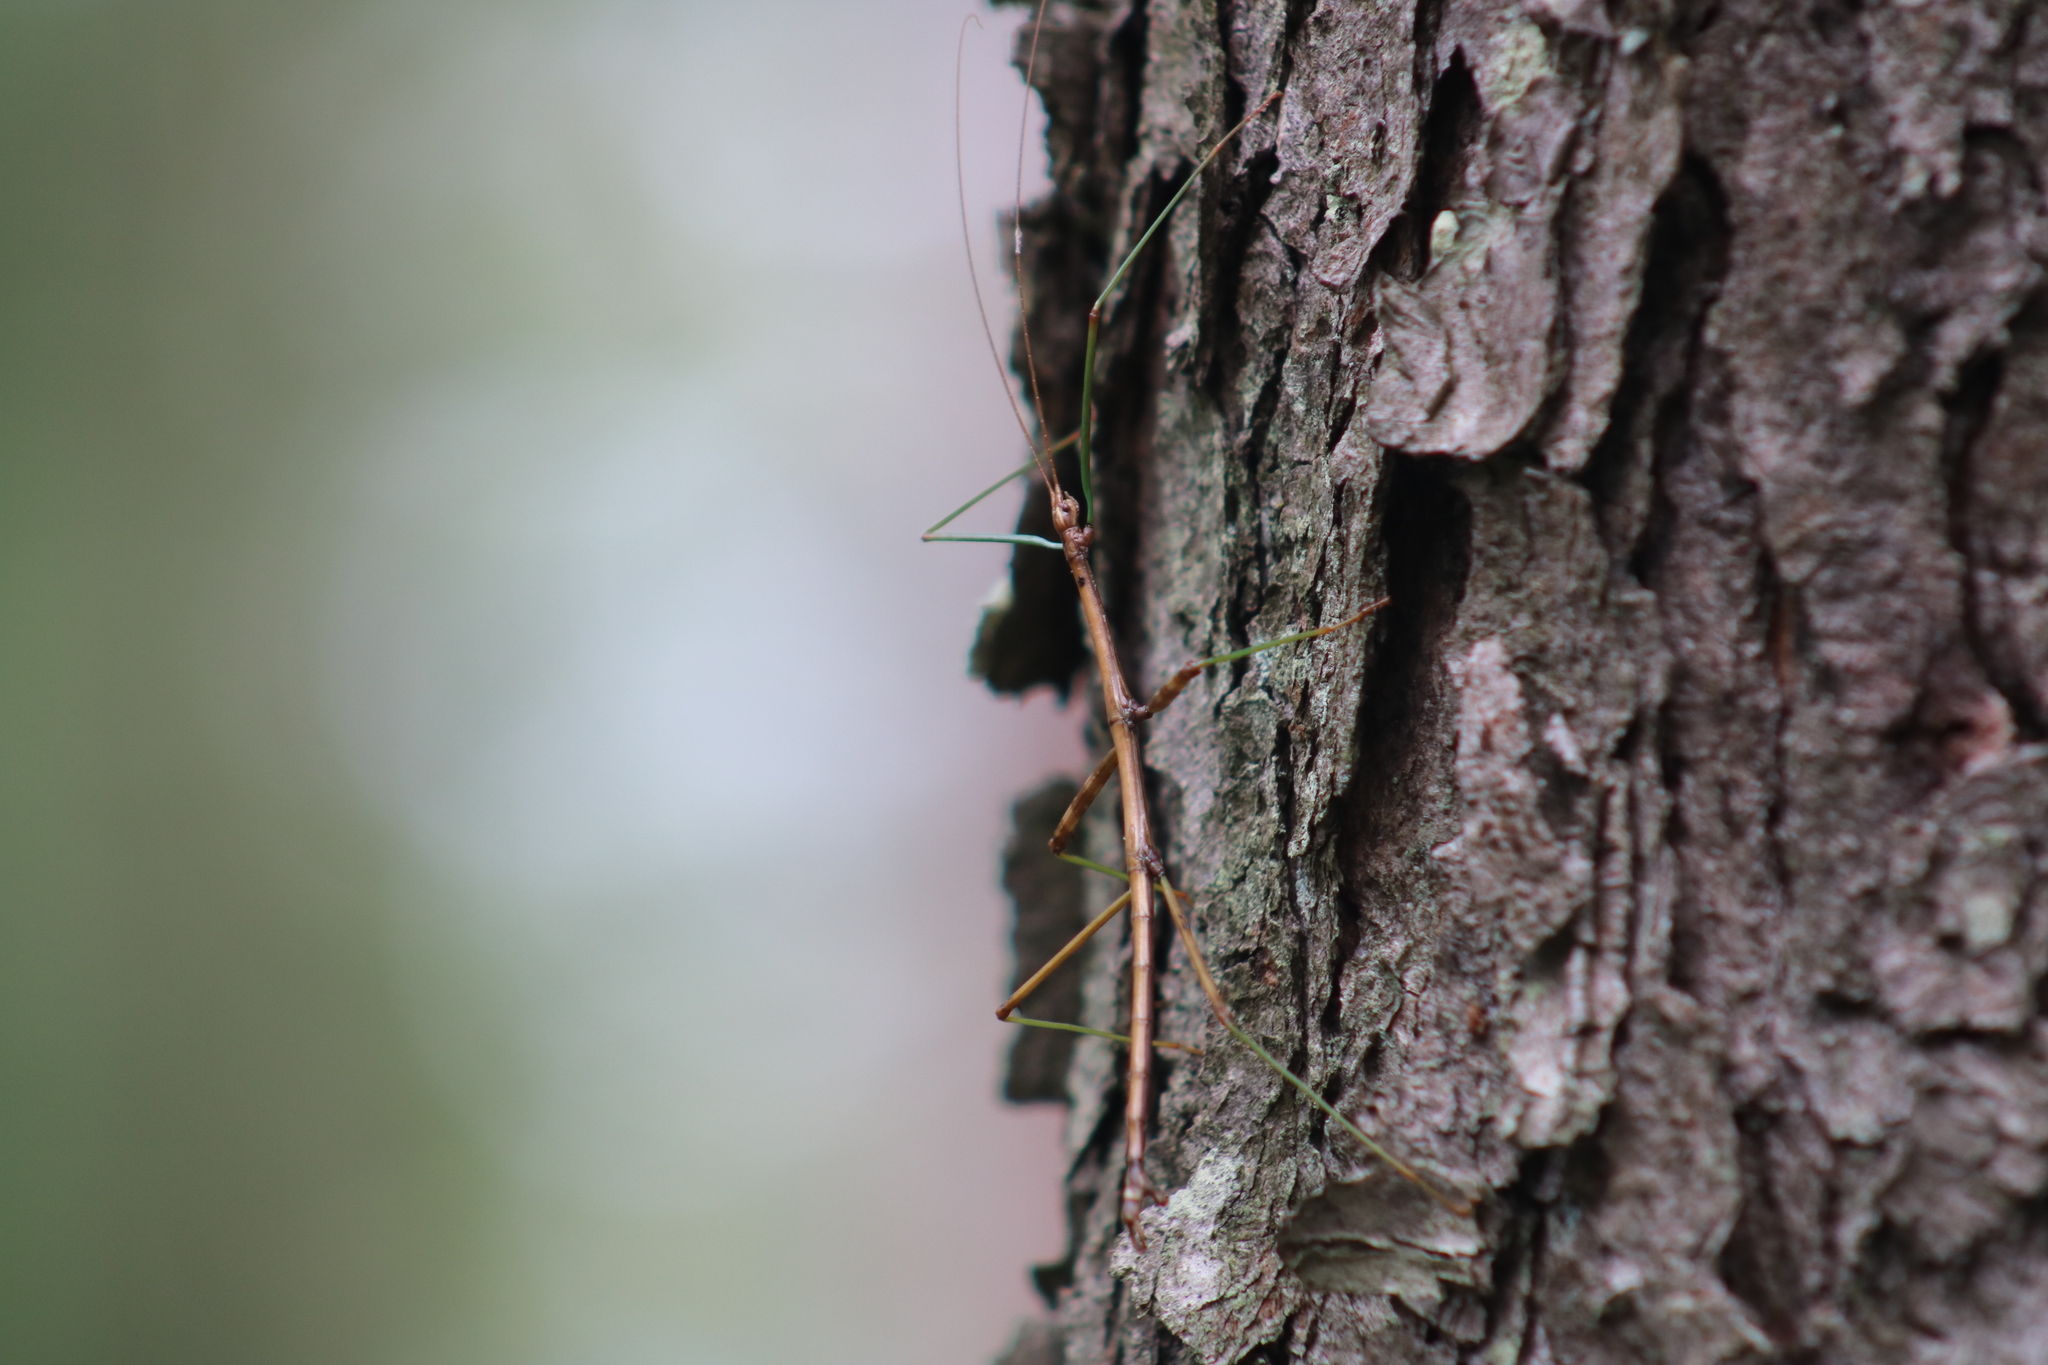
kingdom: Animalia
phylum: Arthropoda
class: Insecta
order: Phasmida
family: Diapheromeridae
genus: Diapheromera
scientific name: Diapheromera femorata
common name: Common american walkingstick
